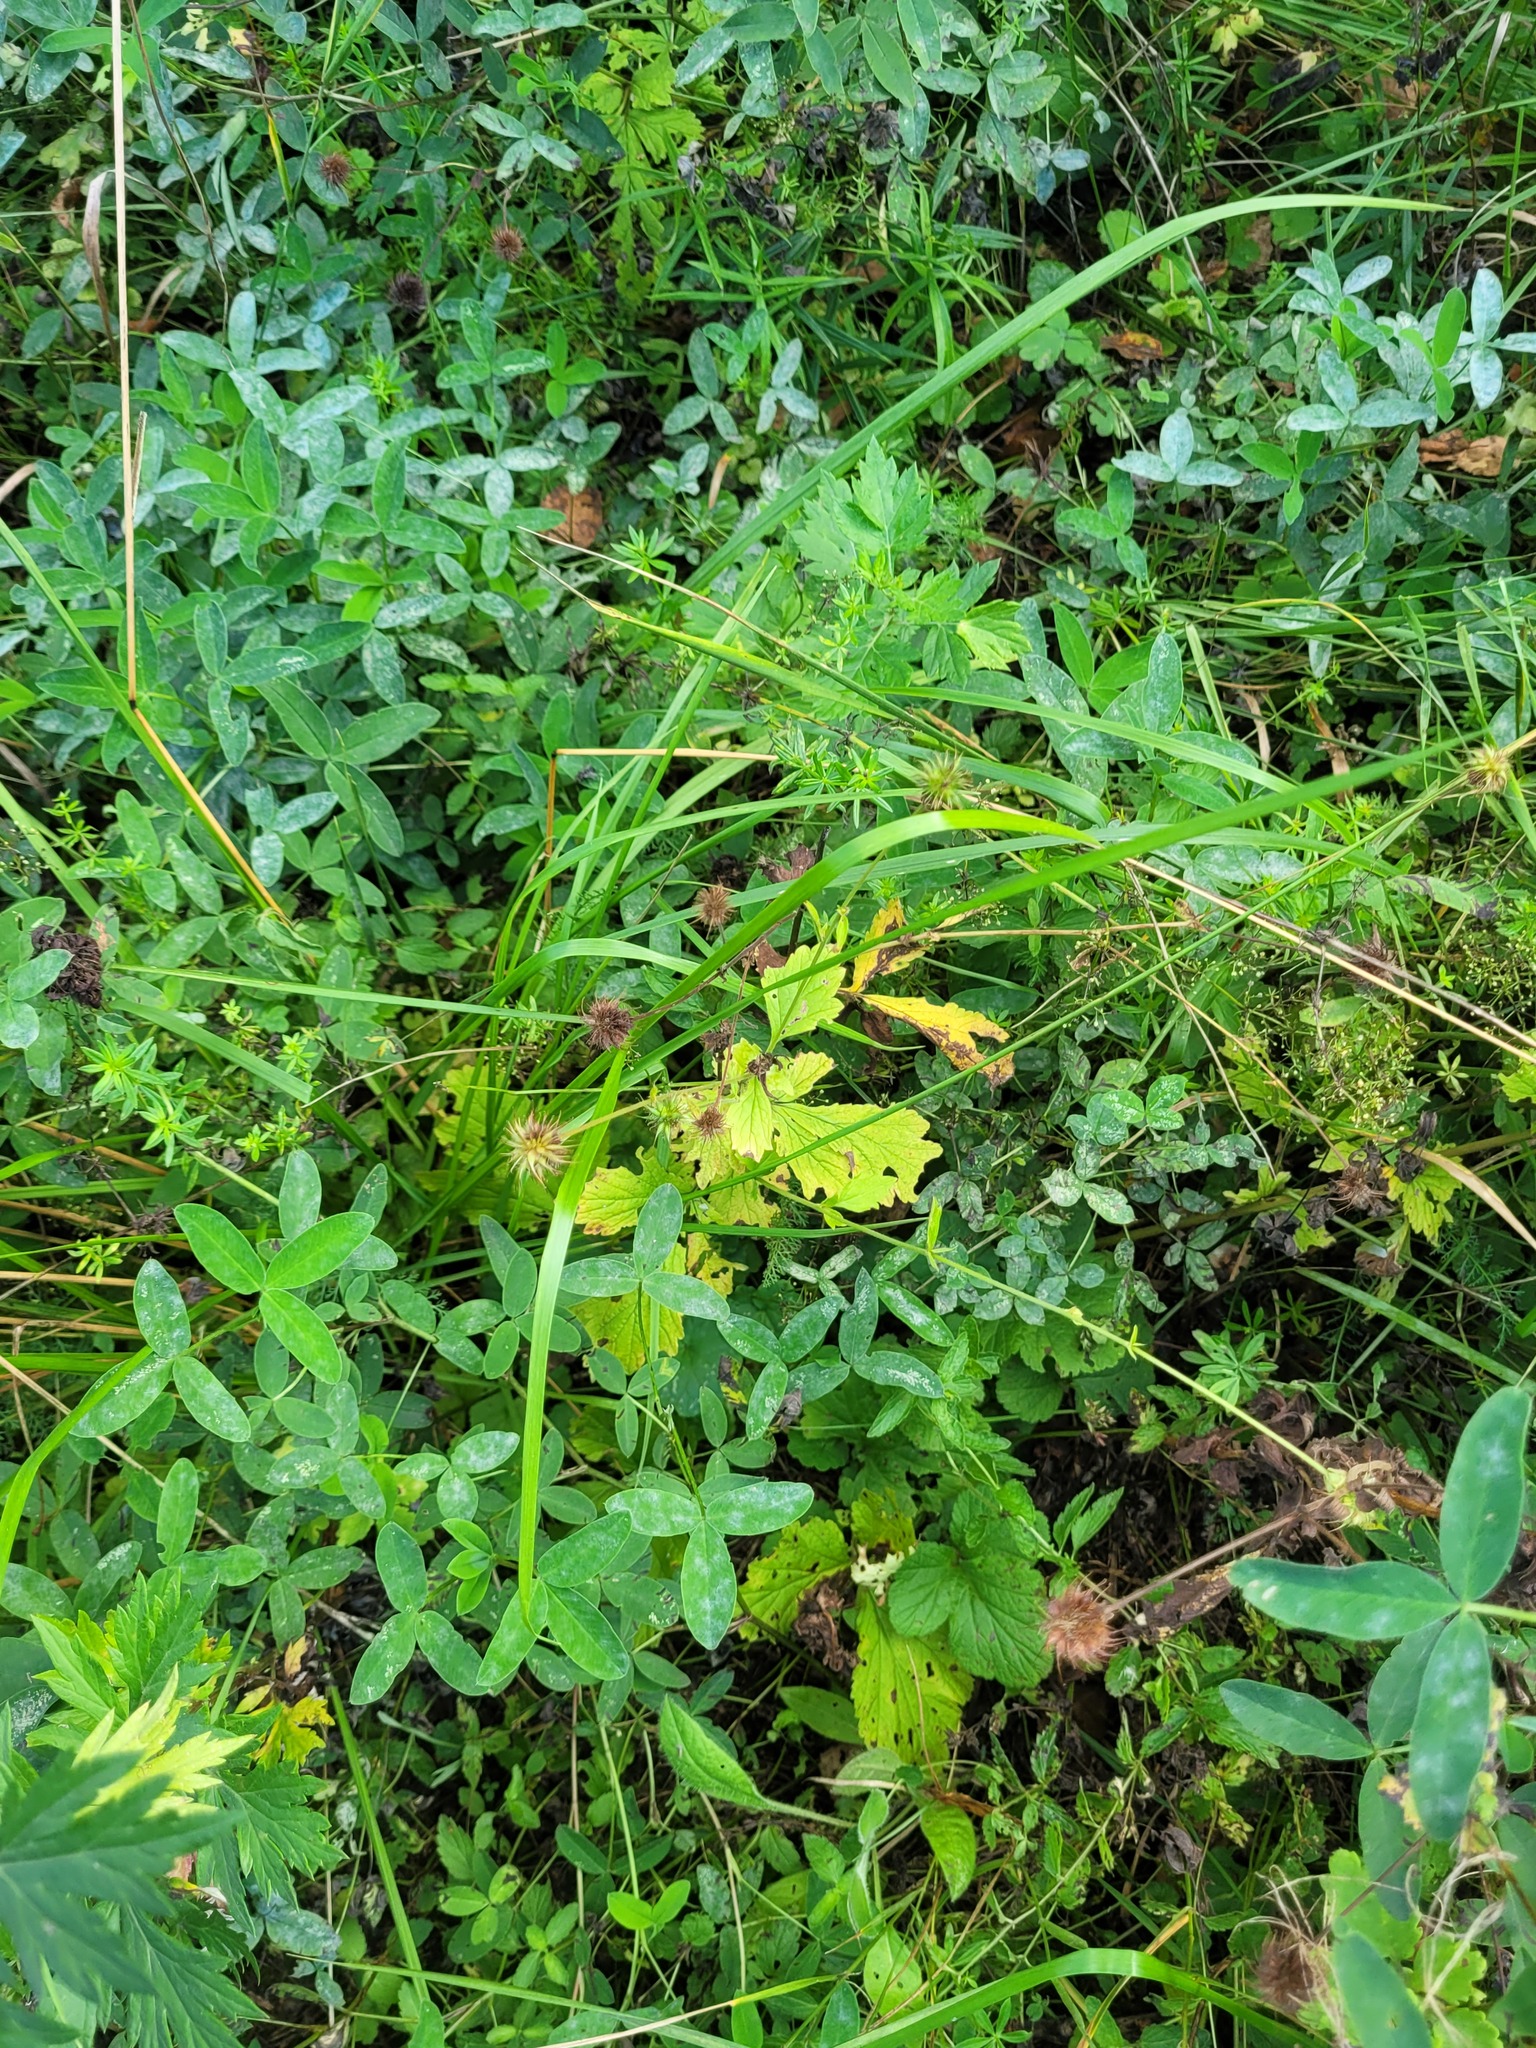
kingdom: Plantae
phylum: Tracheophyta
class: Magnoliopsida
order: Rosales
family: Rosaceae
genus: Geum
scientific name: Geum urbanum
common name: Wood avens
